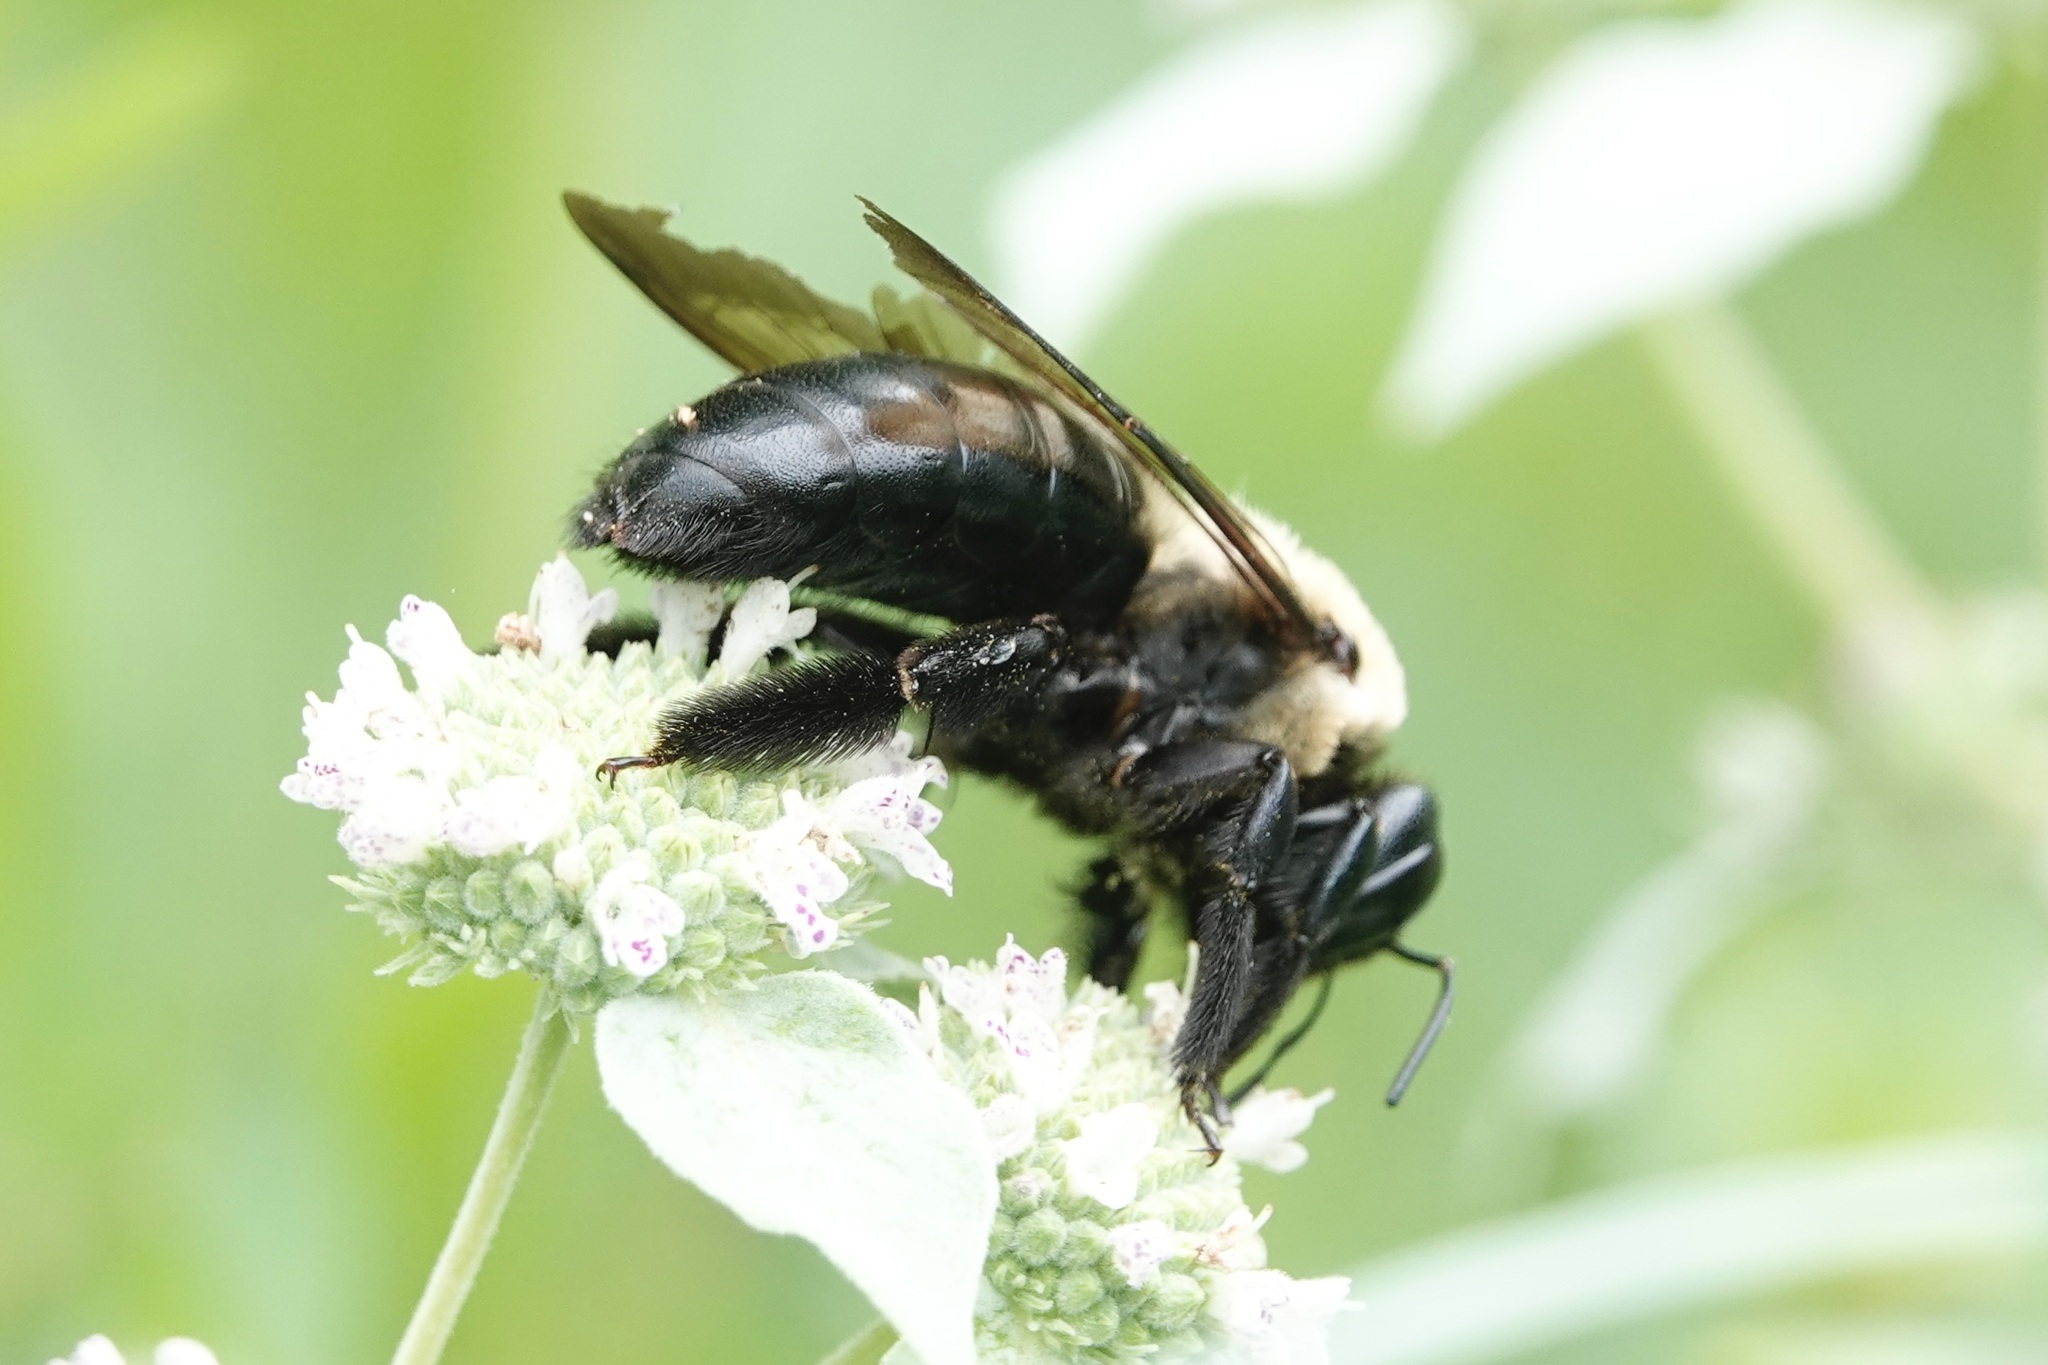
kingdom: Animalia
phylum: Arthropoda
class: Insecta
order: Hymenoptera
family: Apidae
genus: Xylocopa
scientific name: Xylocopa virginica
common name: Carpenter bee
